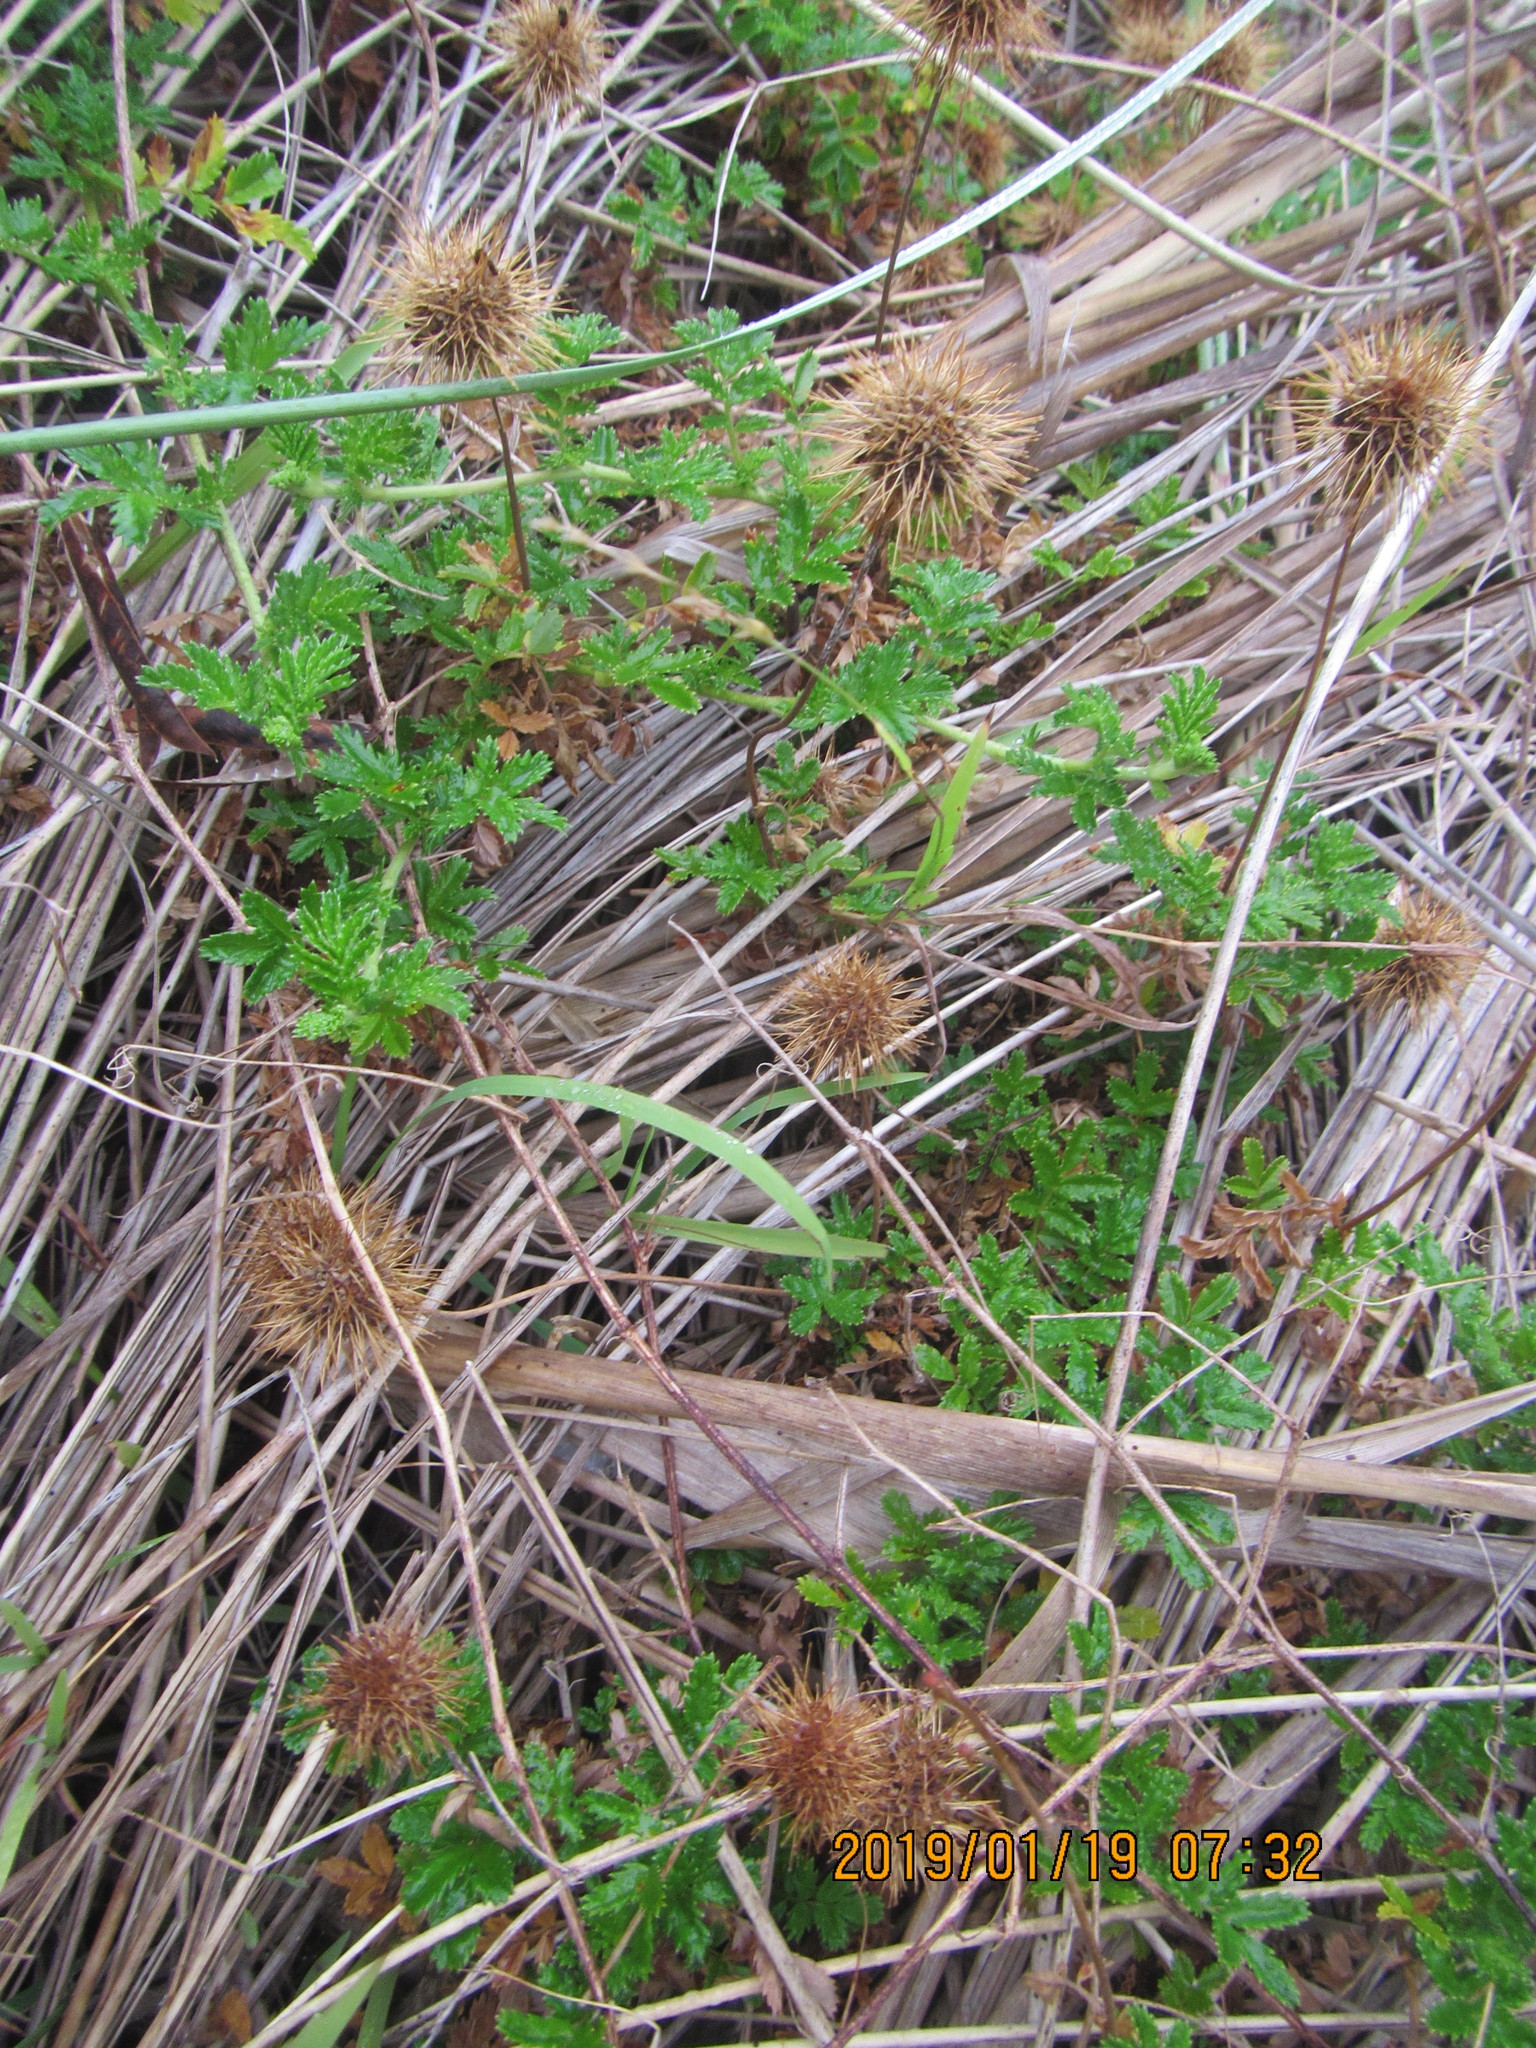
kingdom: Plantae
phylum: Tracheophyta
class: Magnoliopsida
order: Rosales
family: Rosaceae
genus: Acaena
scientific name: Acaena novae-zelandiae
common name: Pirri-pirri-bur
